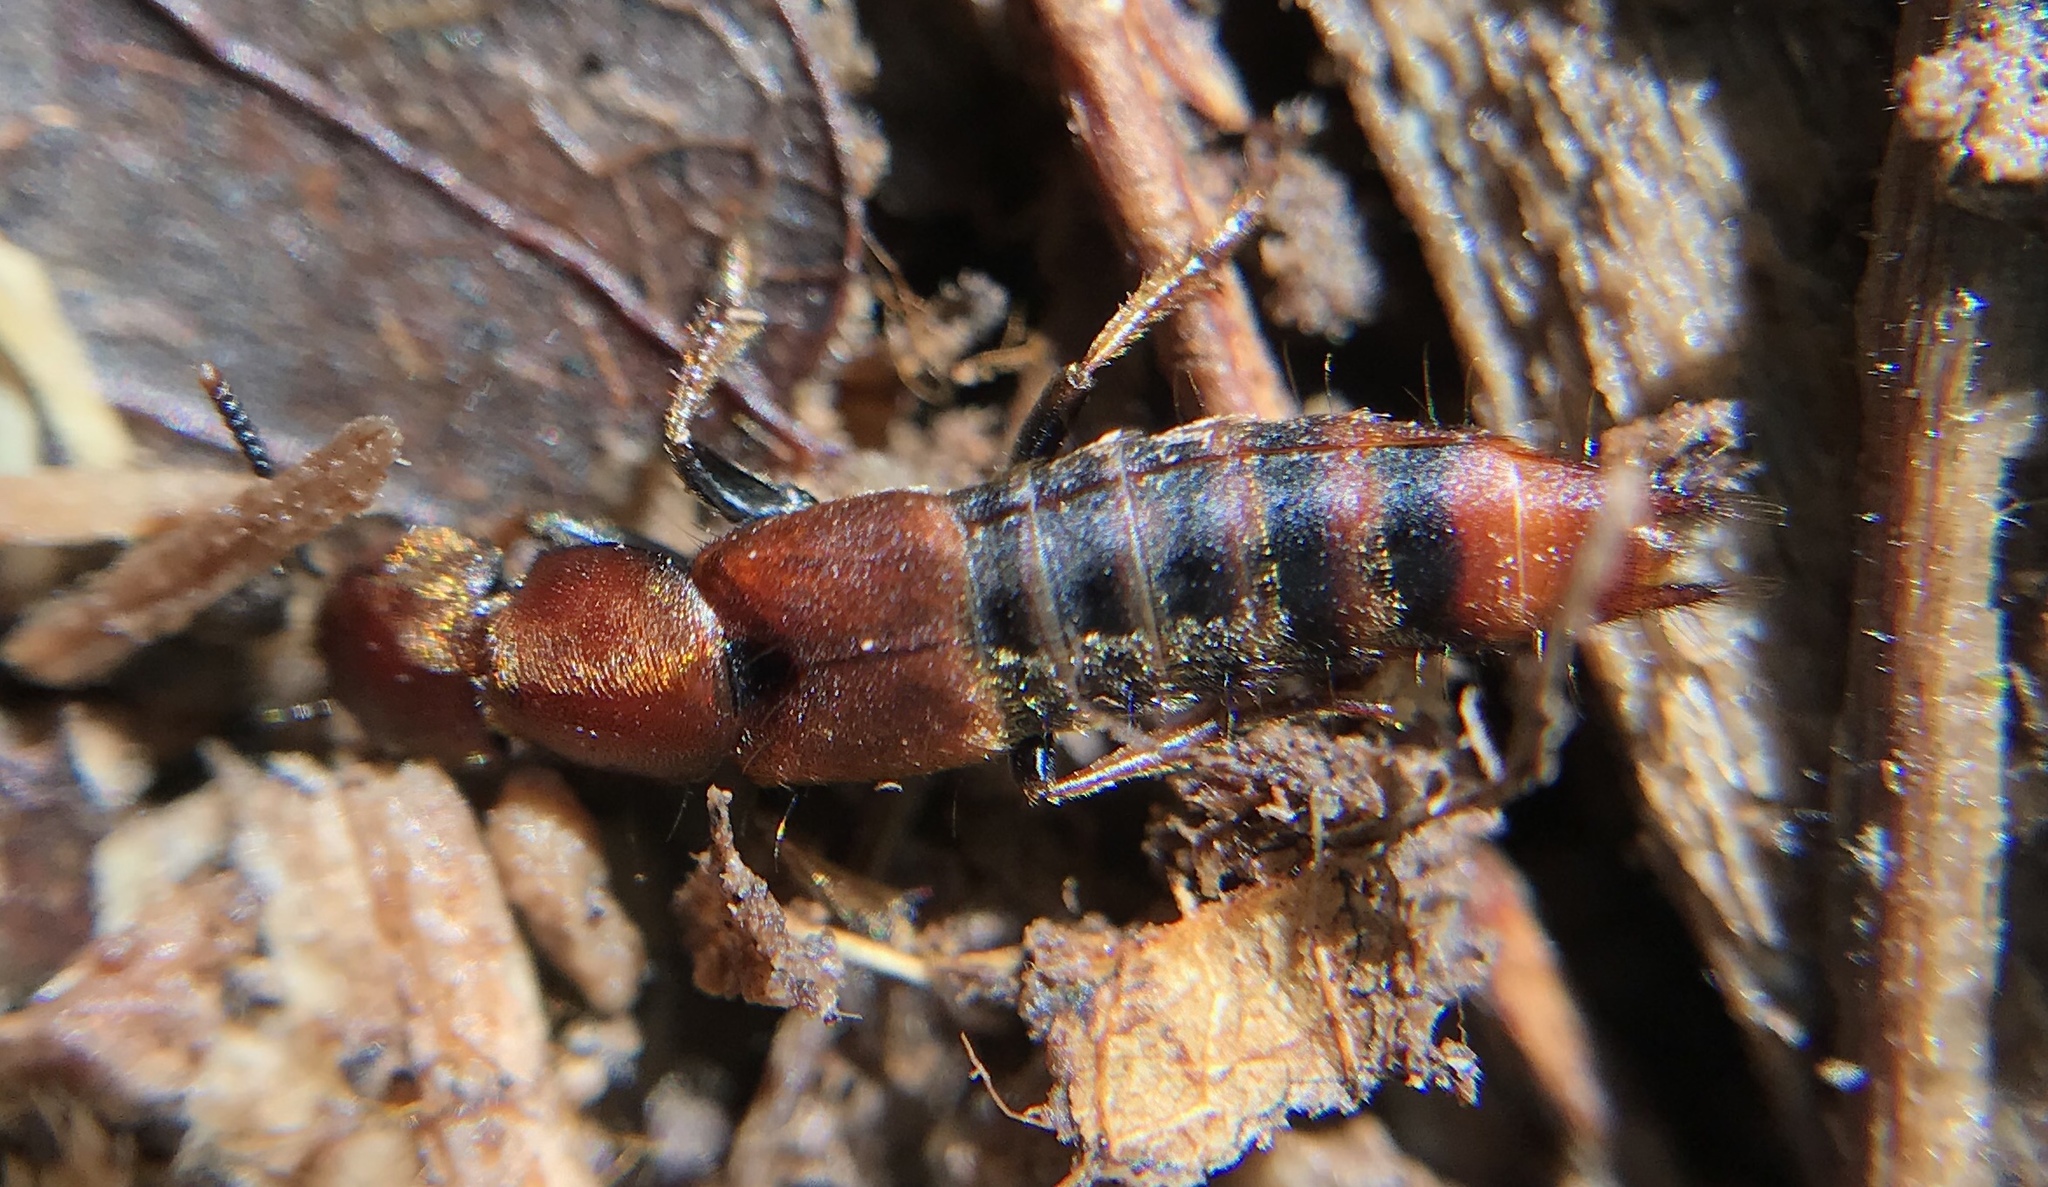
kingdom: Animalia
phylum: Arthropoda
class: Insecta
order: Coleoptera
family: Staphylinidae
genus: Platydracus
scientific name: Platydracus cinnamopterus
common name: Cinnamon rove beetle
